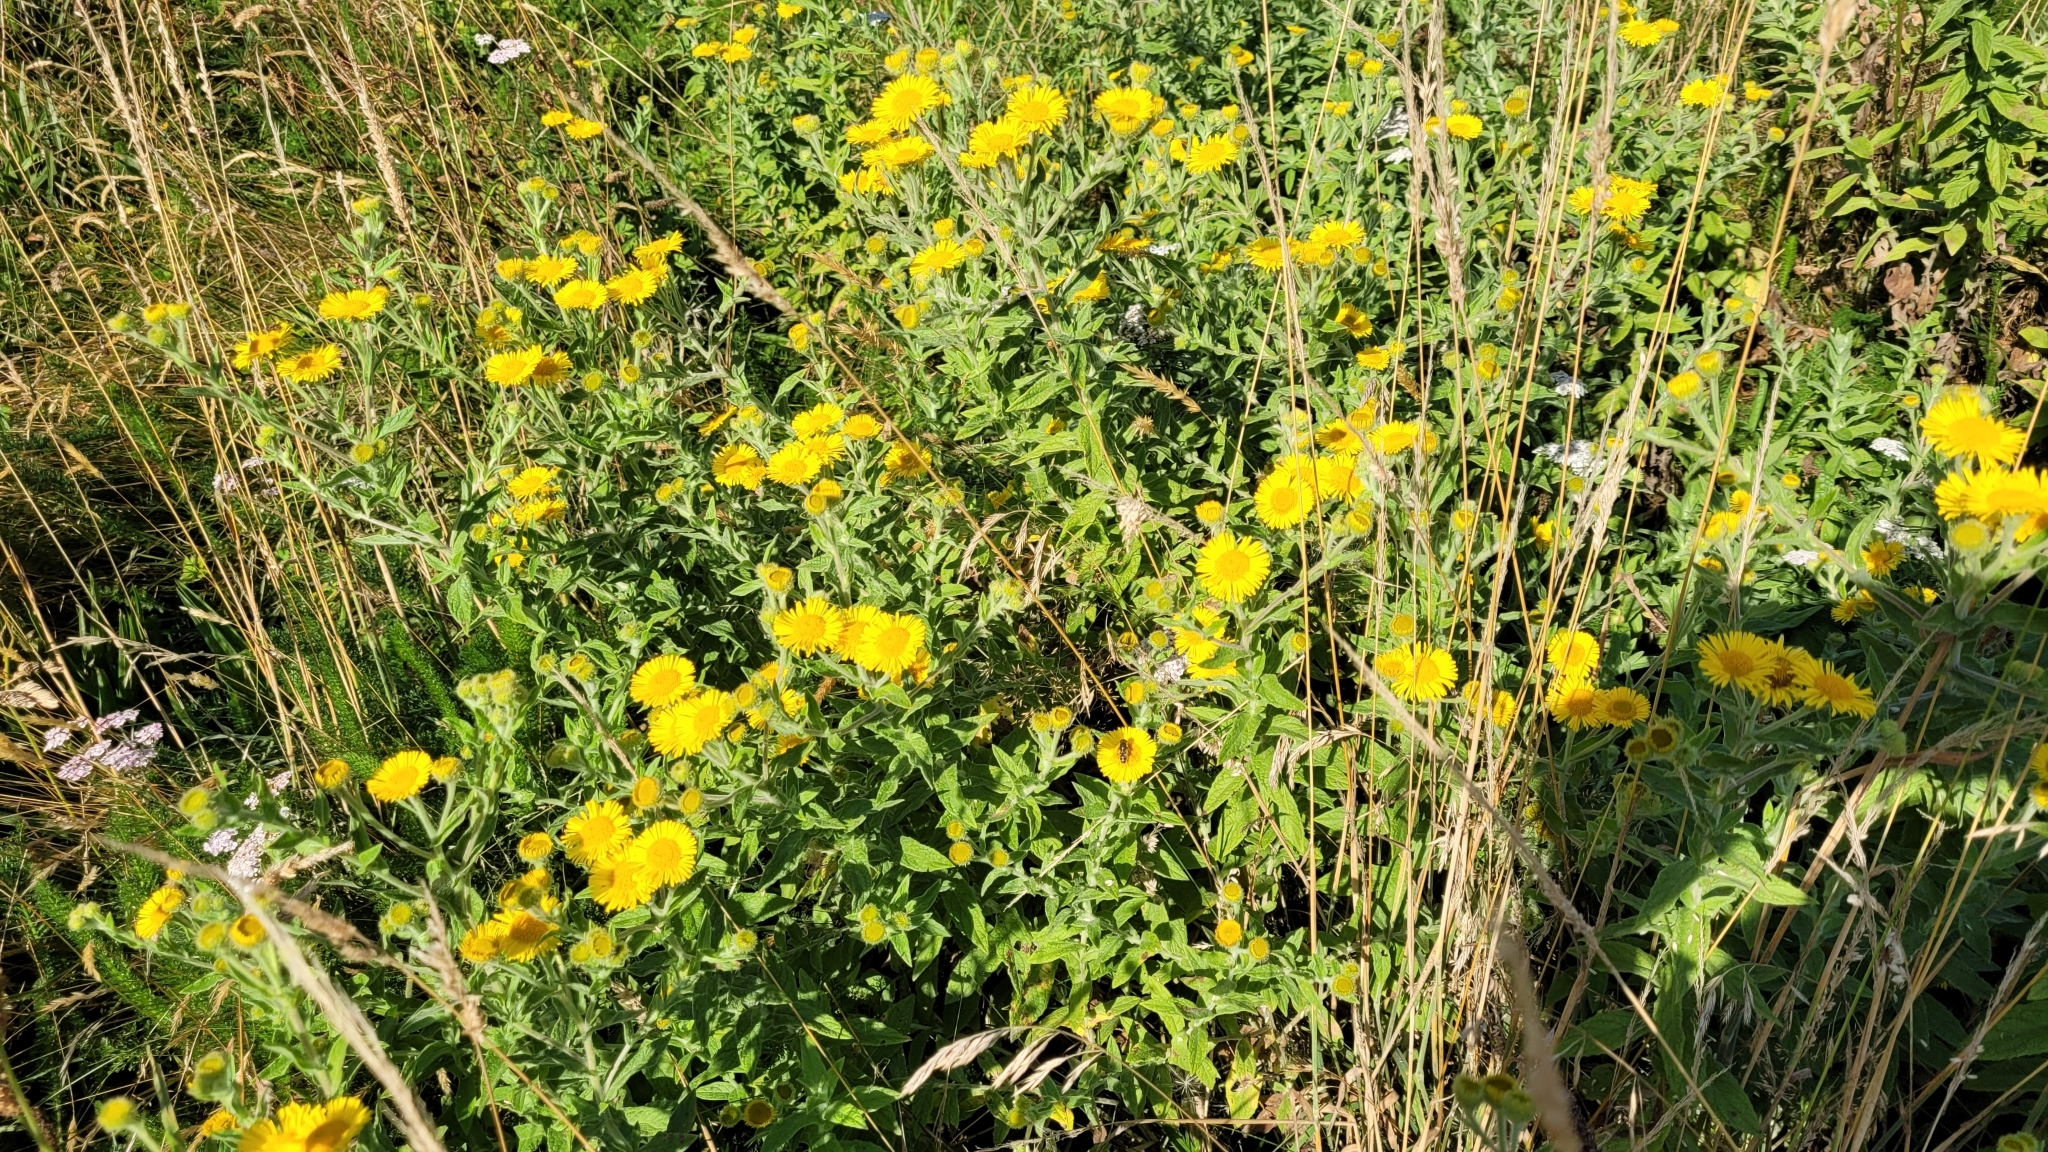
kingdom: Plantae
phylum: Tracheophyta
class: Magnoliopsida
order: Asterales
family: Asteraceae
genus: Pulicaria
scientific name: Pulicaria dysenterica
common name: Common fleabane
